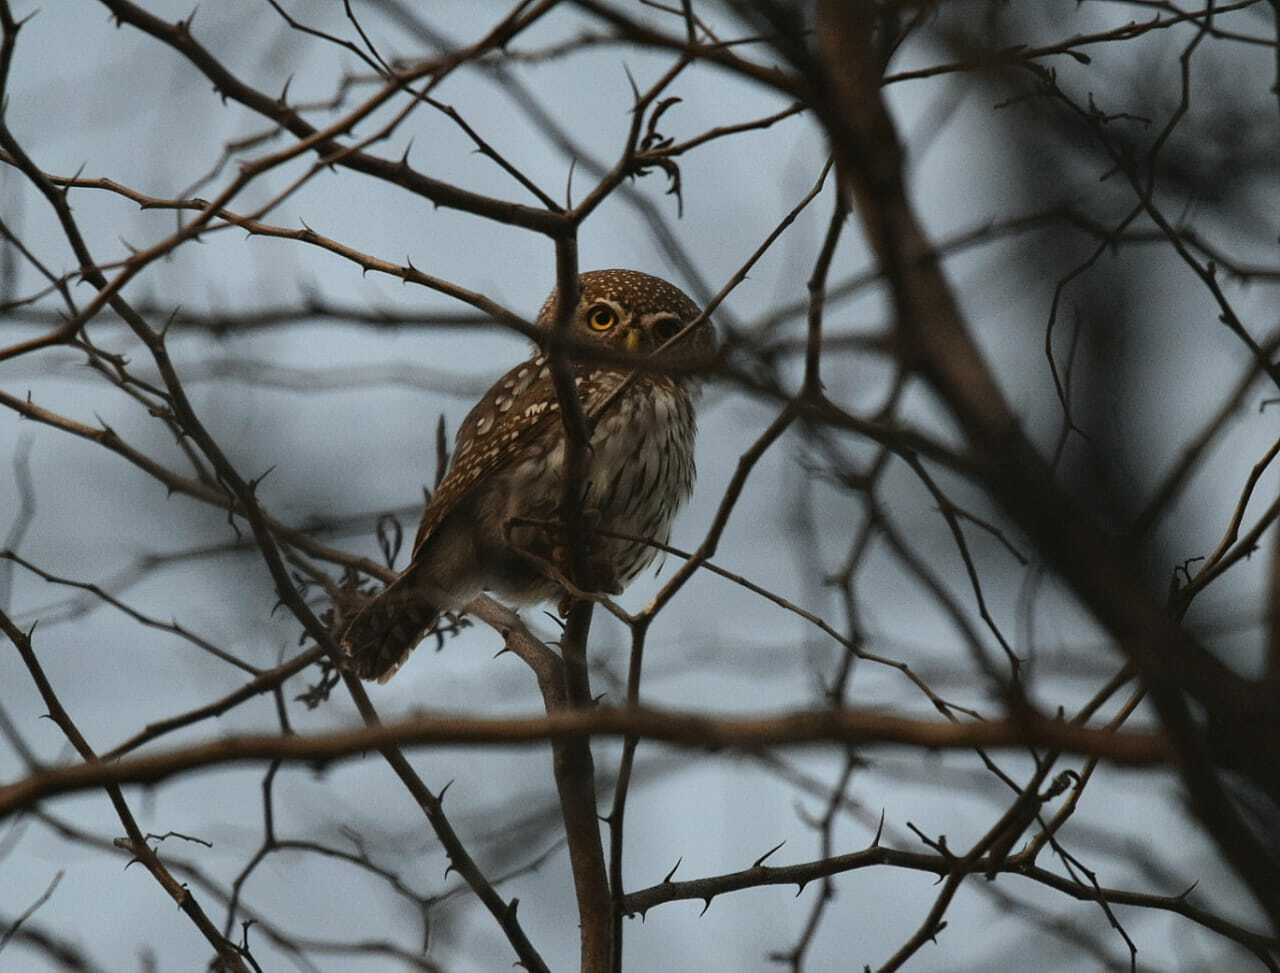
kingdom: Animalia
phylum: Chordata
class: Aves
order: Strigiformes
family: Strigidae
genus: Glaucidium
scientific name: Glaucidium perlatum
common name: Pearl-spotted owlet
